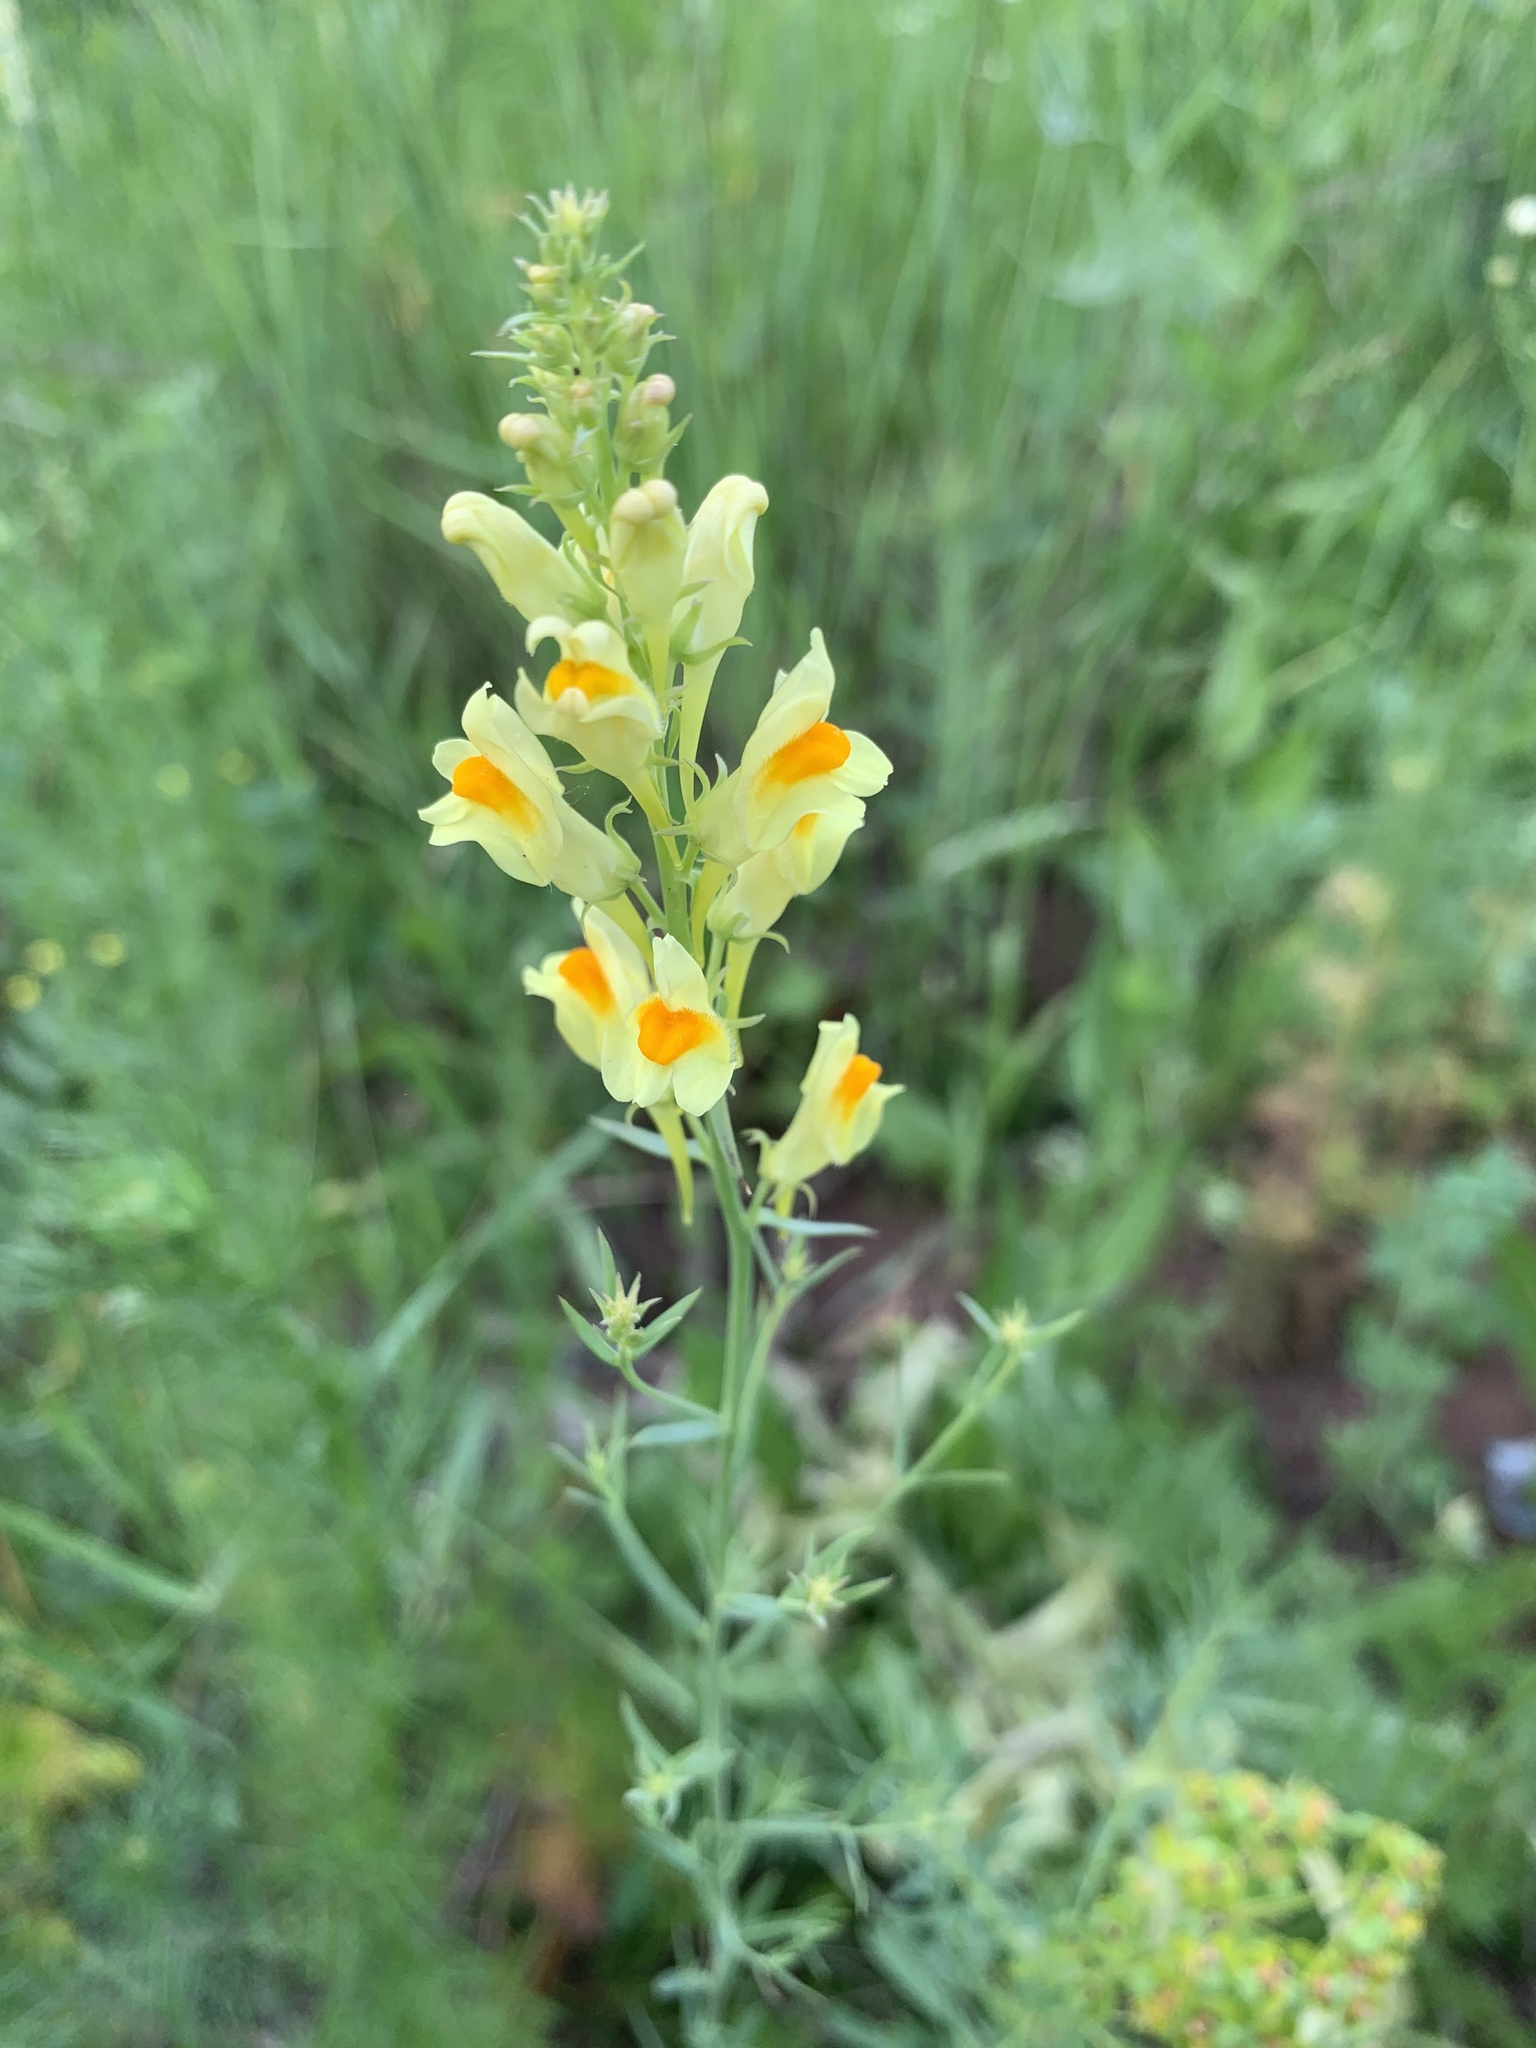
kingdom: Plantae
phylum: Tracheophyta
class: Magnoliopsida
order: Lamiales
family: Plantaginaceae
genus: Linaria
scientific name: Linaria vulgaris
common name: Butter and eggs
